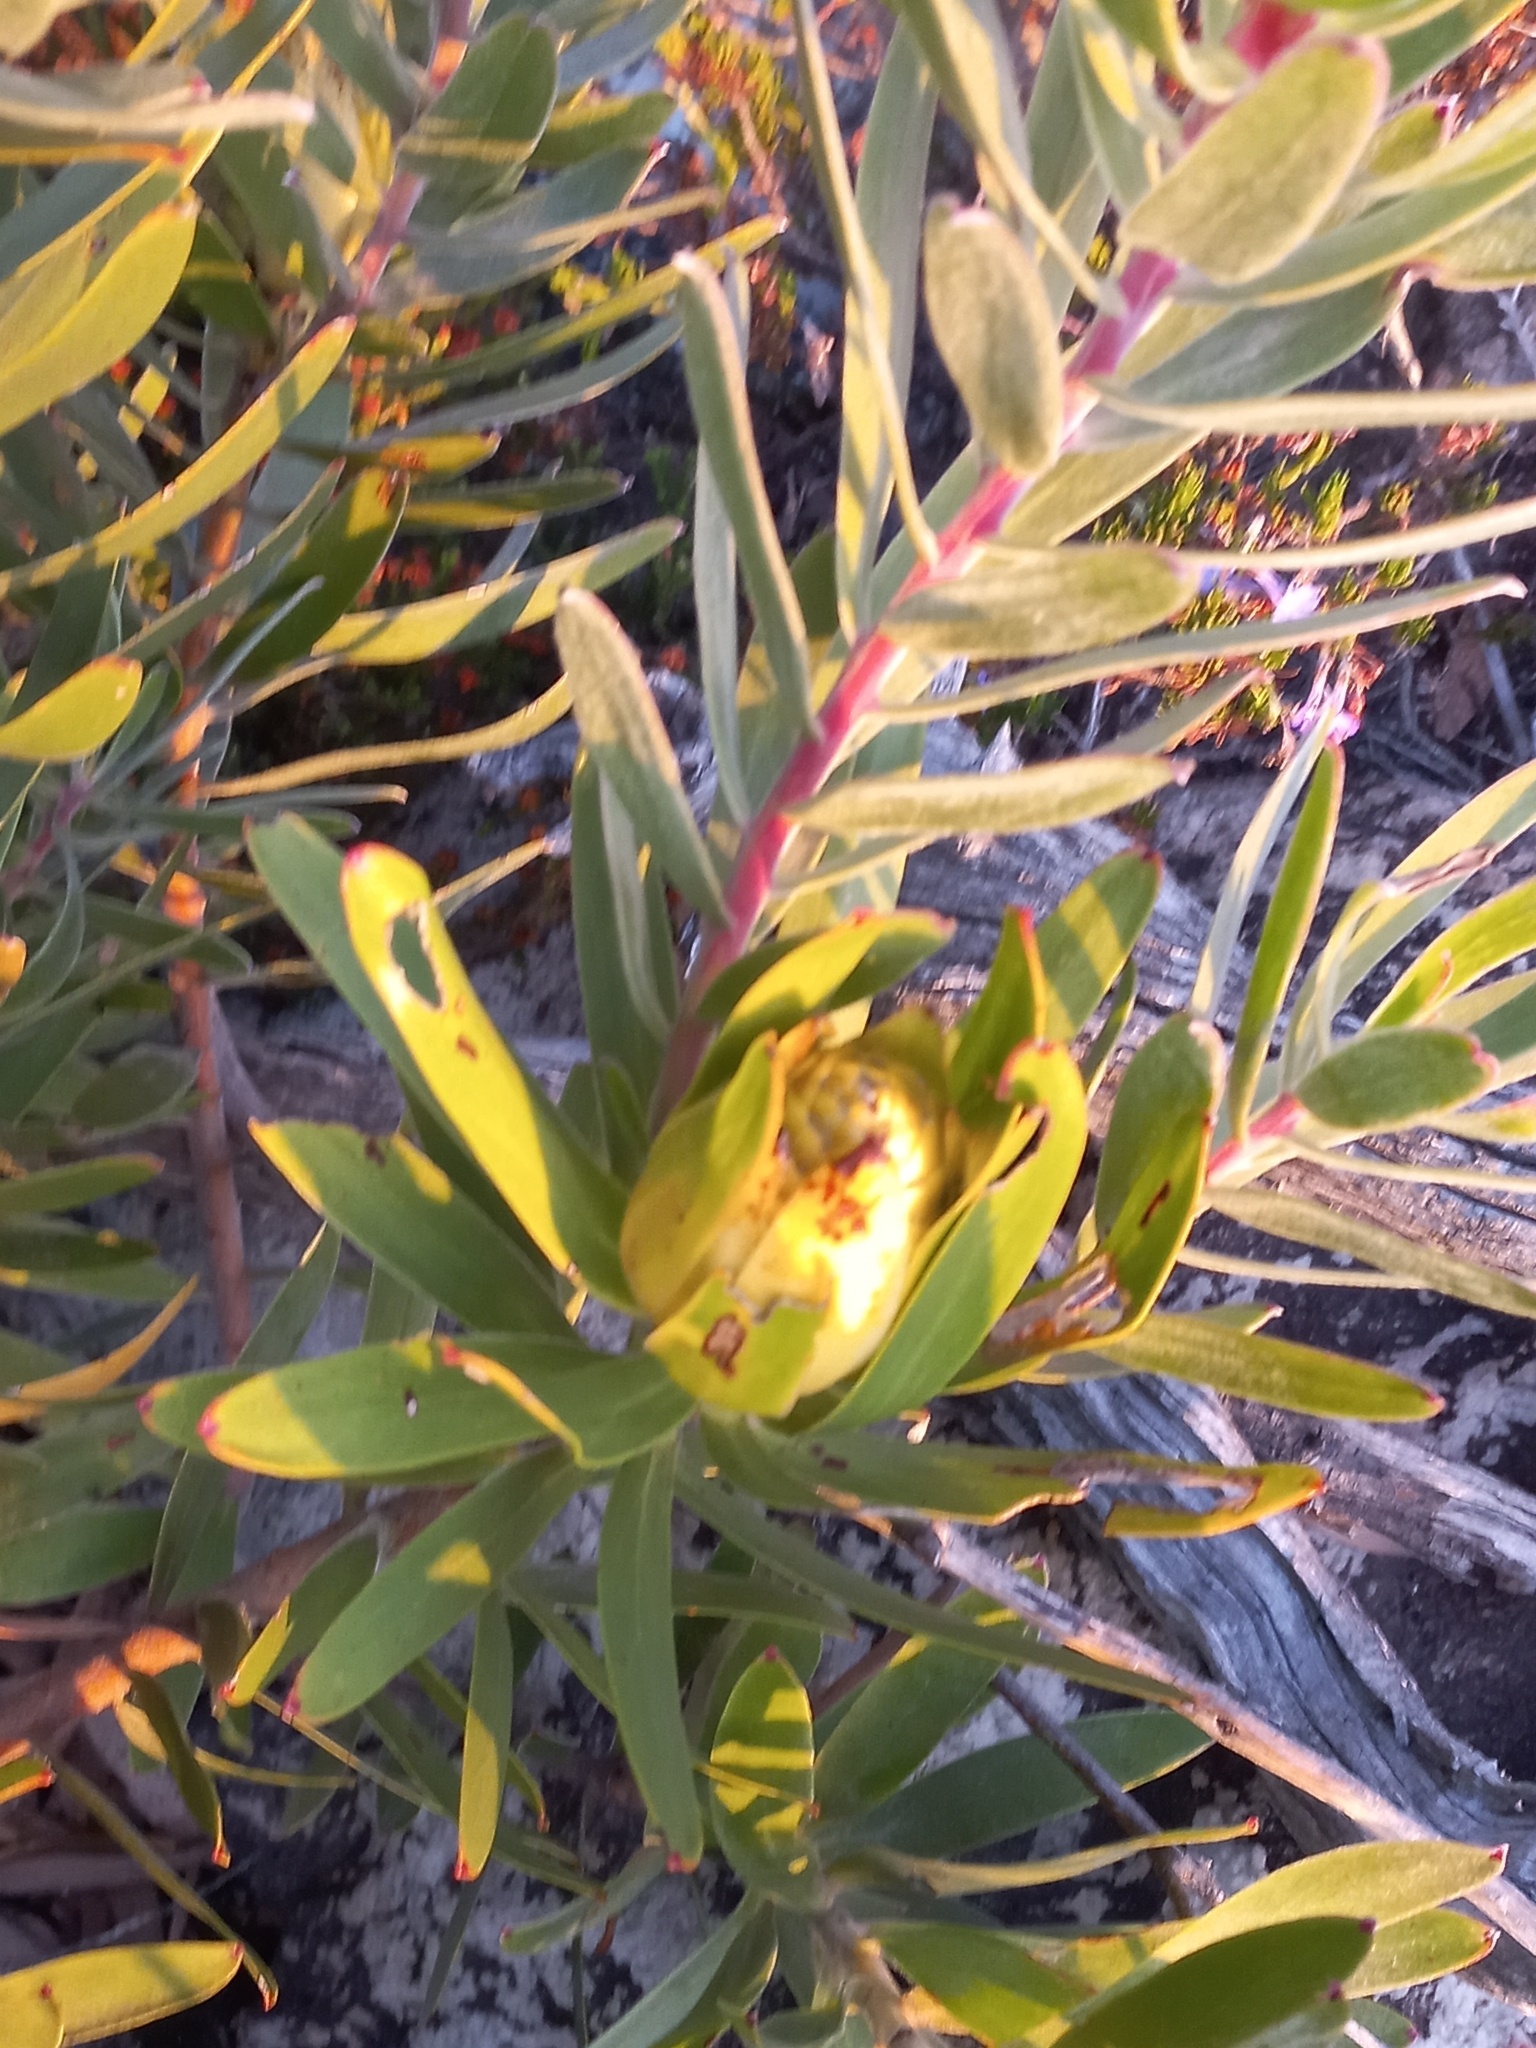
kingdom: Plantae
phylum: Tracheophyta
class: Magnoliopsida
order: Proteales
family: Proteaceae
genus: Leucadendron
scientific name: Leucadendron laureolum
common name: Golden sunshinebush
